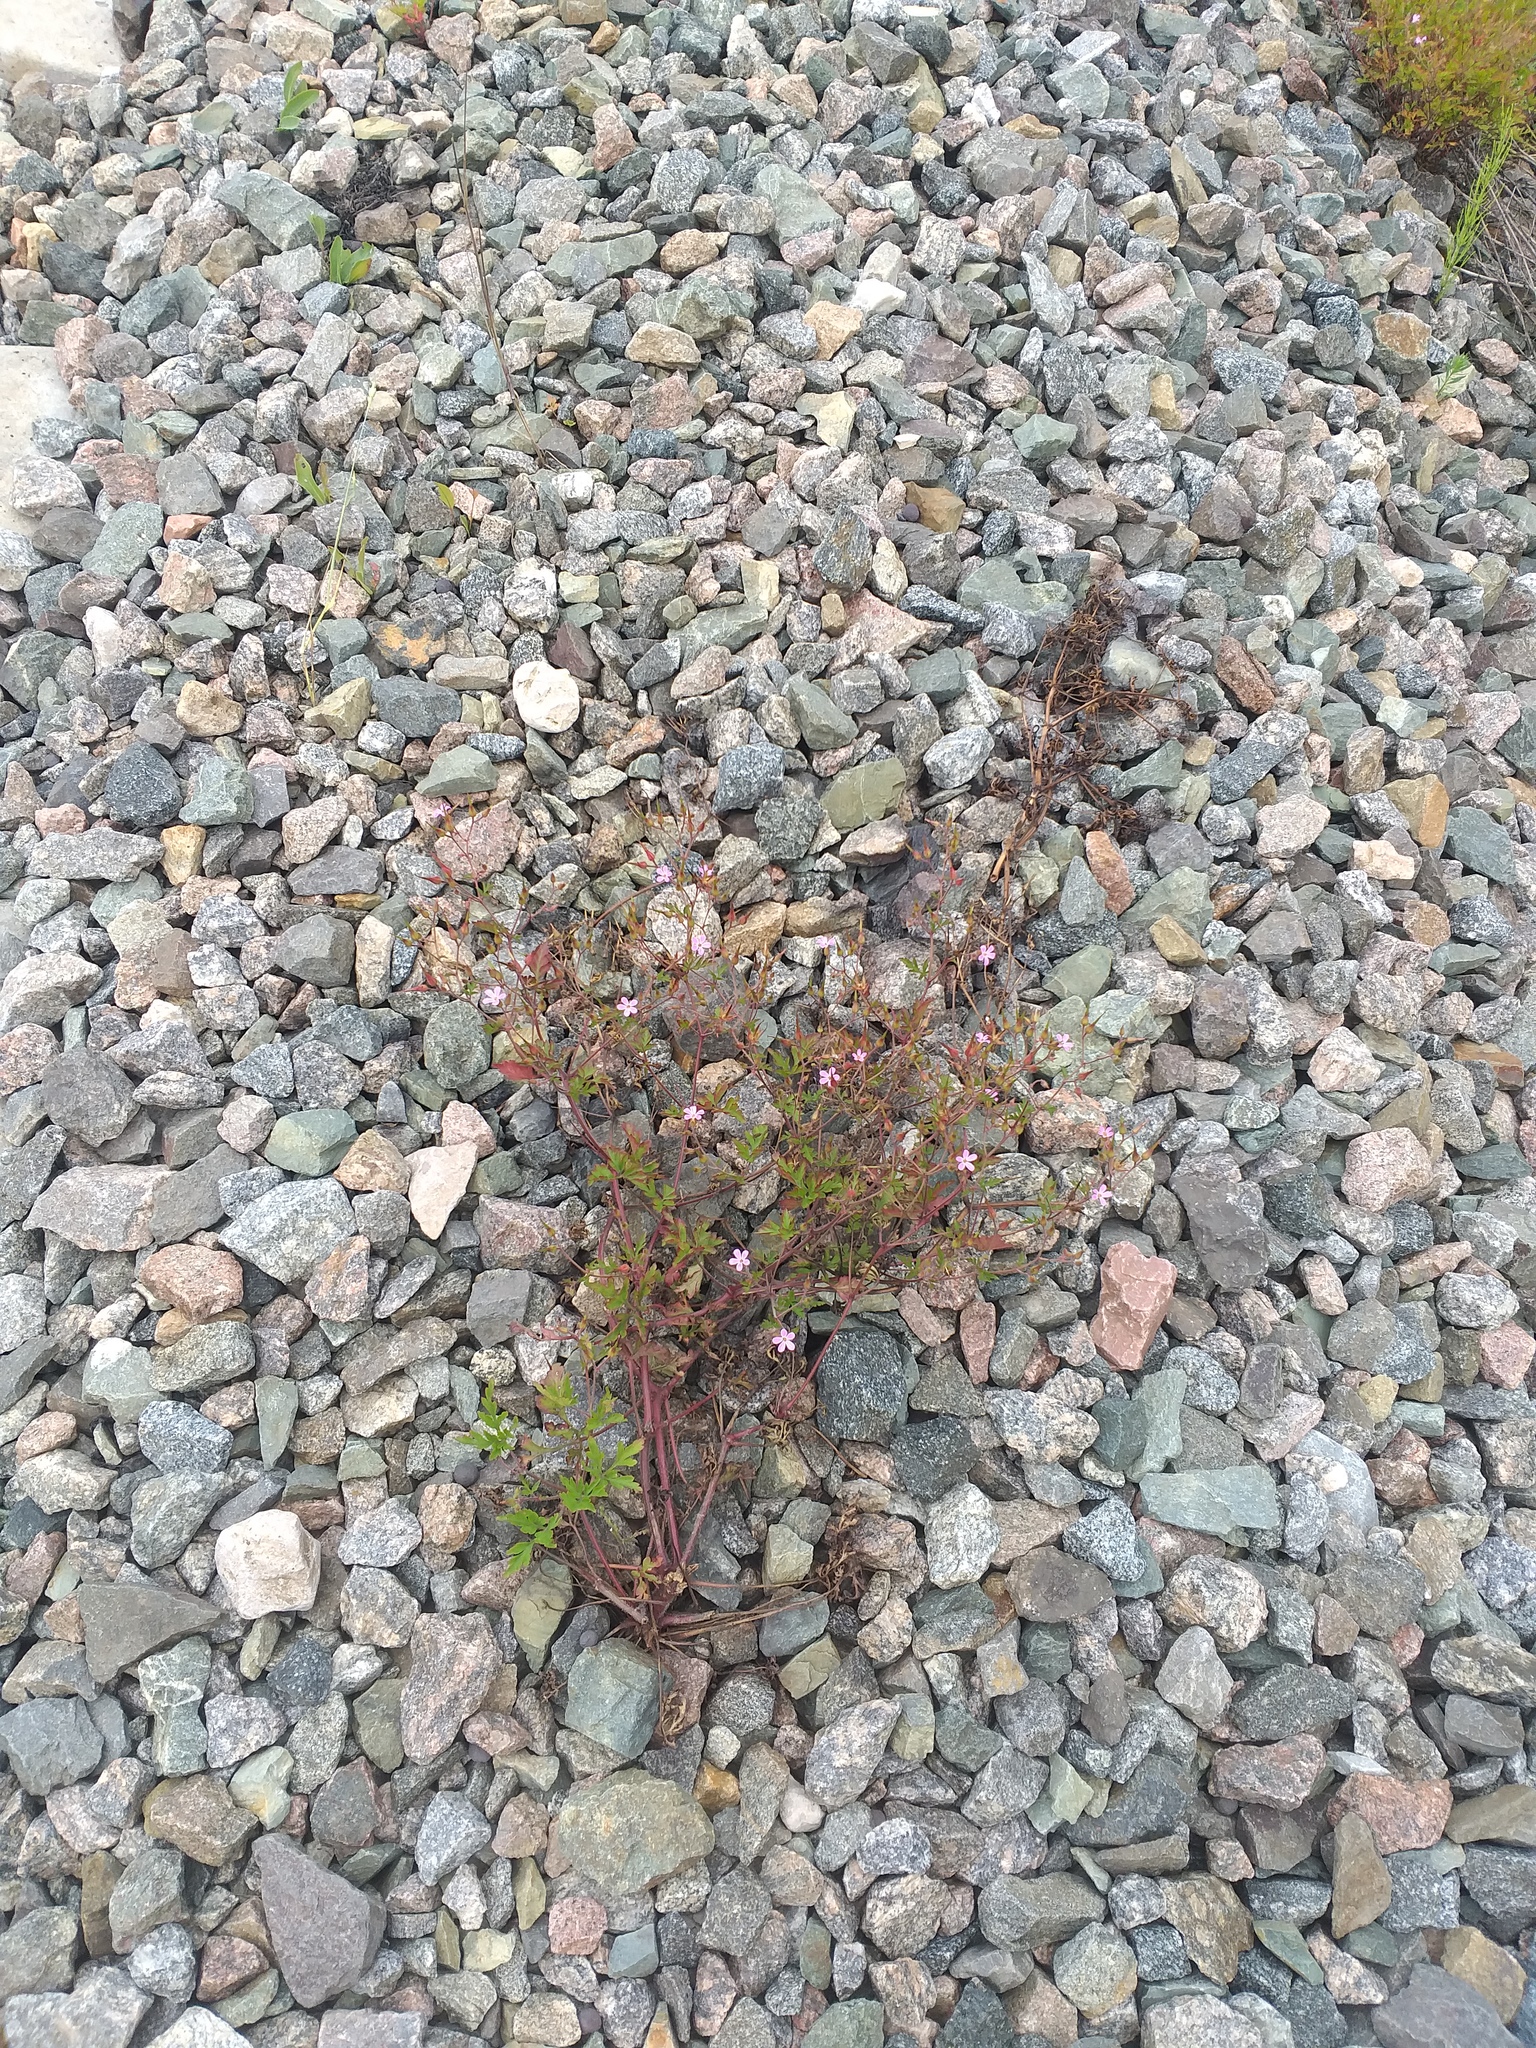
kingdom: Plantae
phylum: Tracheophyta
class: Magnoliopsida
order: Geraniales
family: Geraniaceae
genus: Geranium
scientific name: Geranium robertianum
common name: Herb-robert
